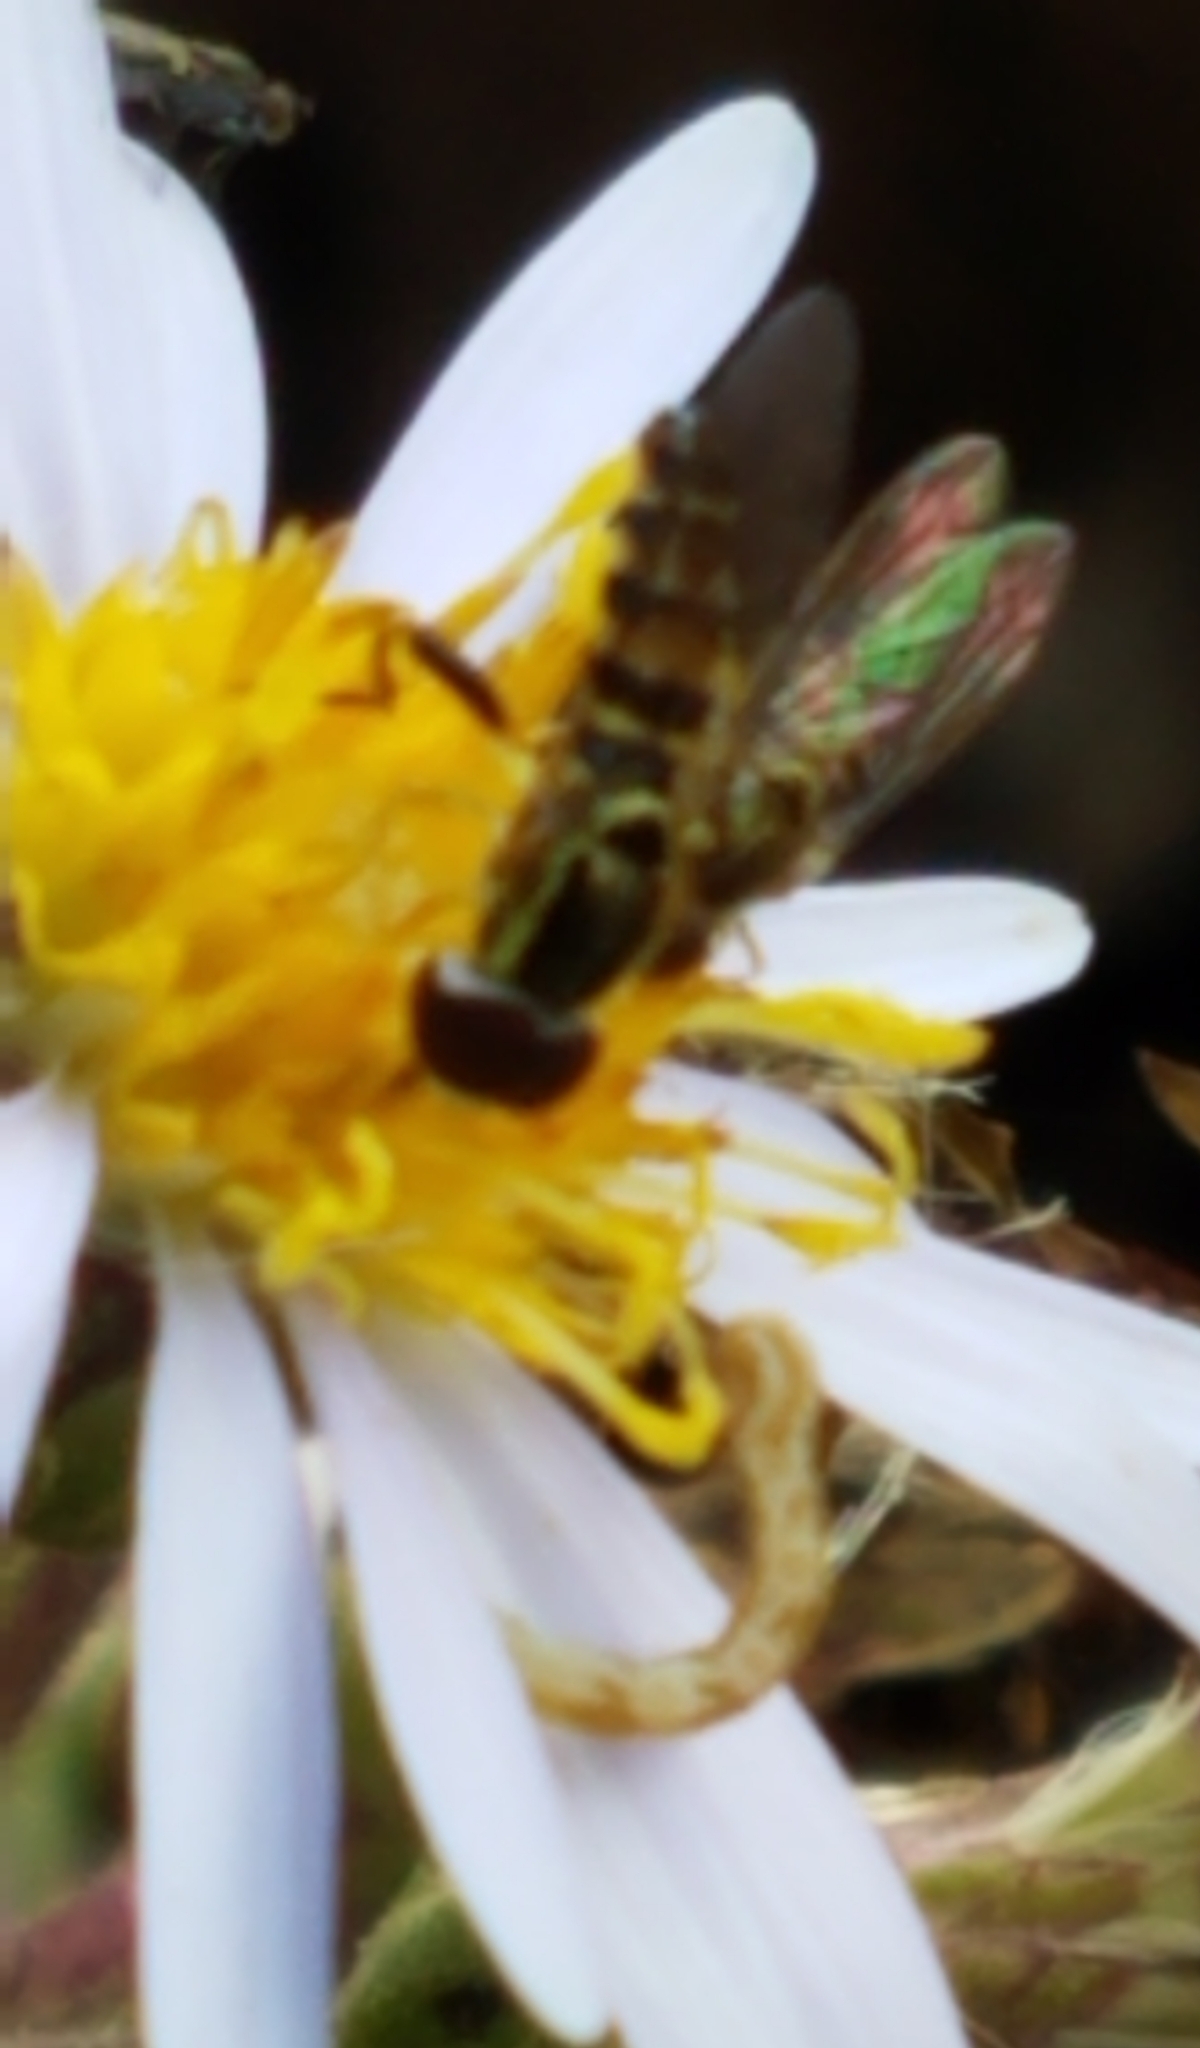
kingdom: Animalia
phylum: Arthropoda
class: Insecta
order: Diptera
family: Syrphidae
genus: Toxomerus
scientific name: Toxomerus geminatus
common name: Eastern calligrapher
